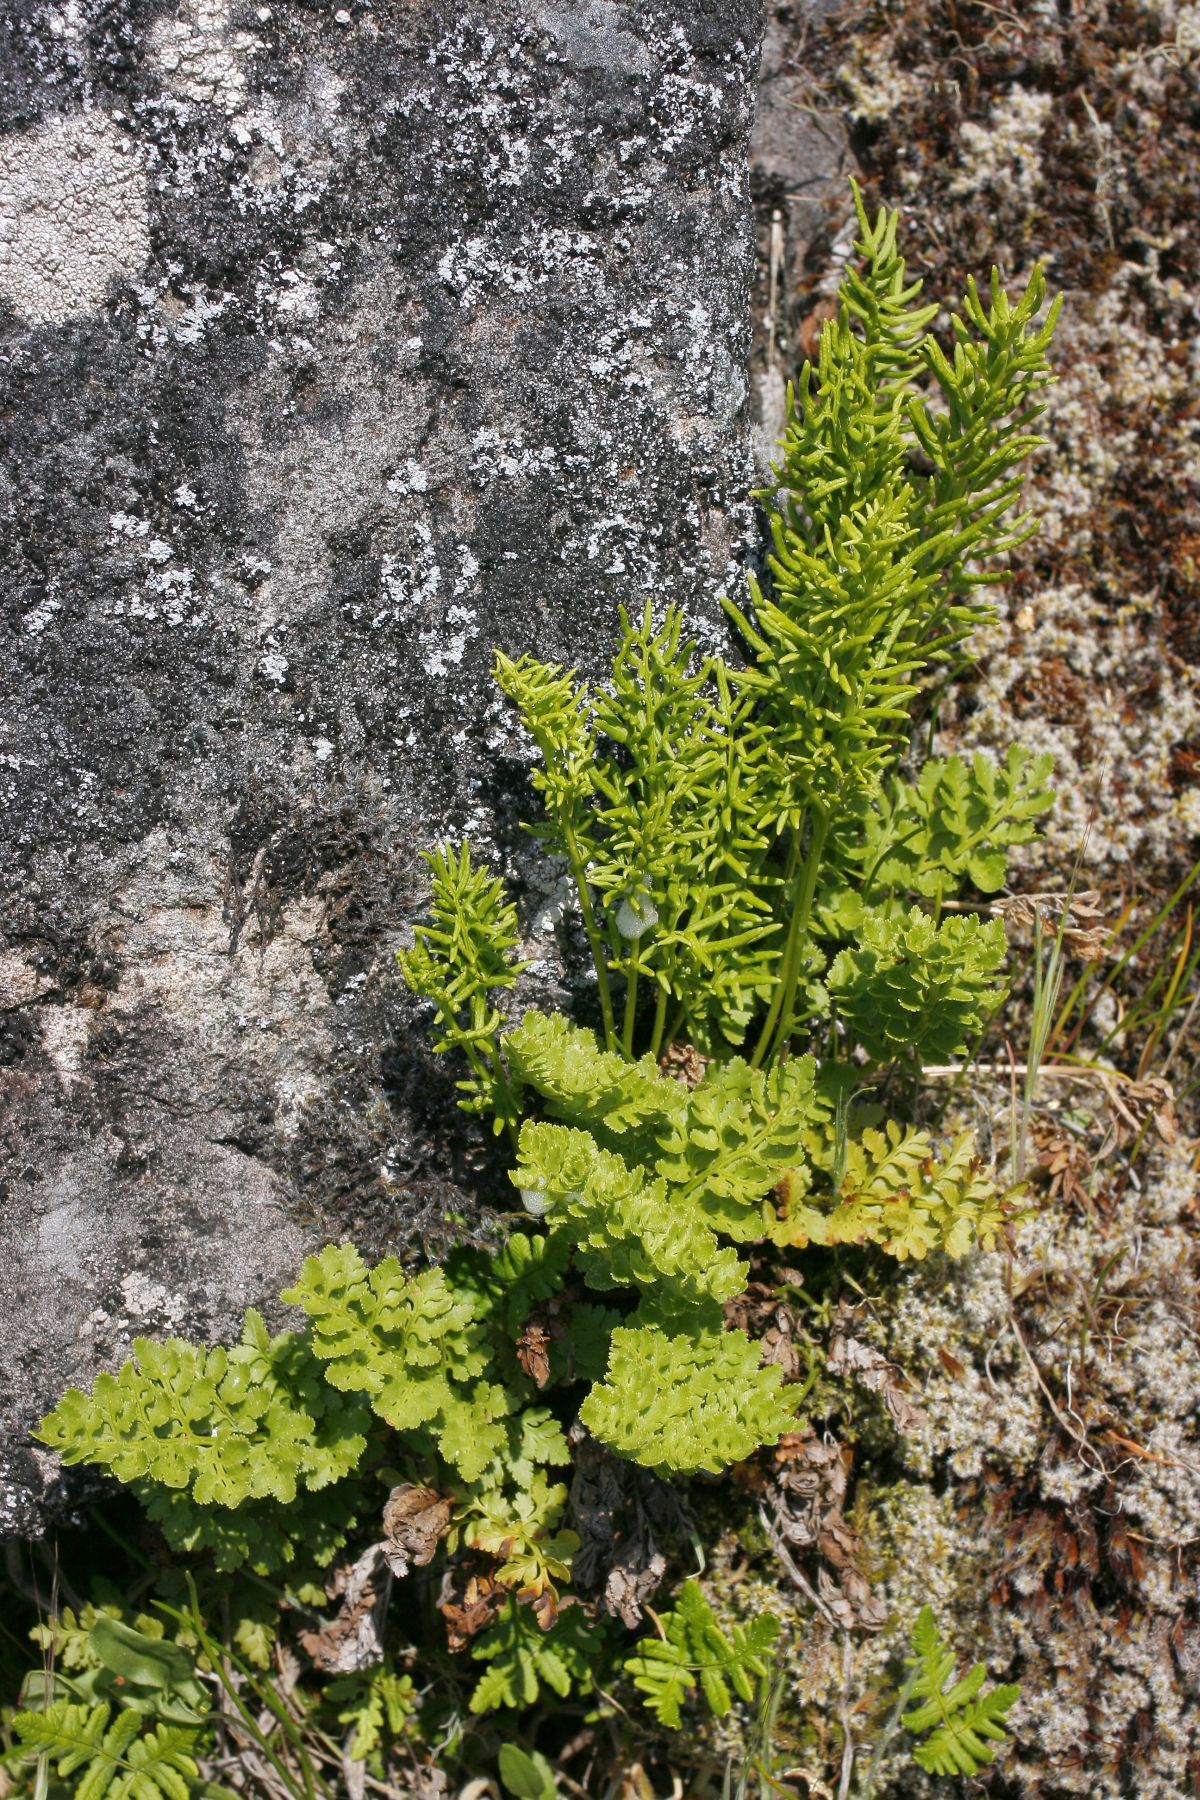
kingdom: Plantae
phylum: Tracheophyta
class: Polypodiopsida
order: Polypodiales
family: Pteridaceae
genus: Cryptogramma
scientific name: Cryptogramma acrostichoides
